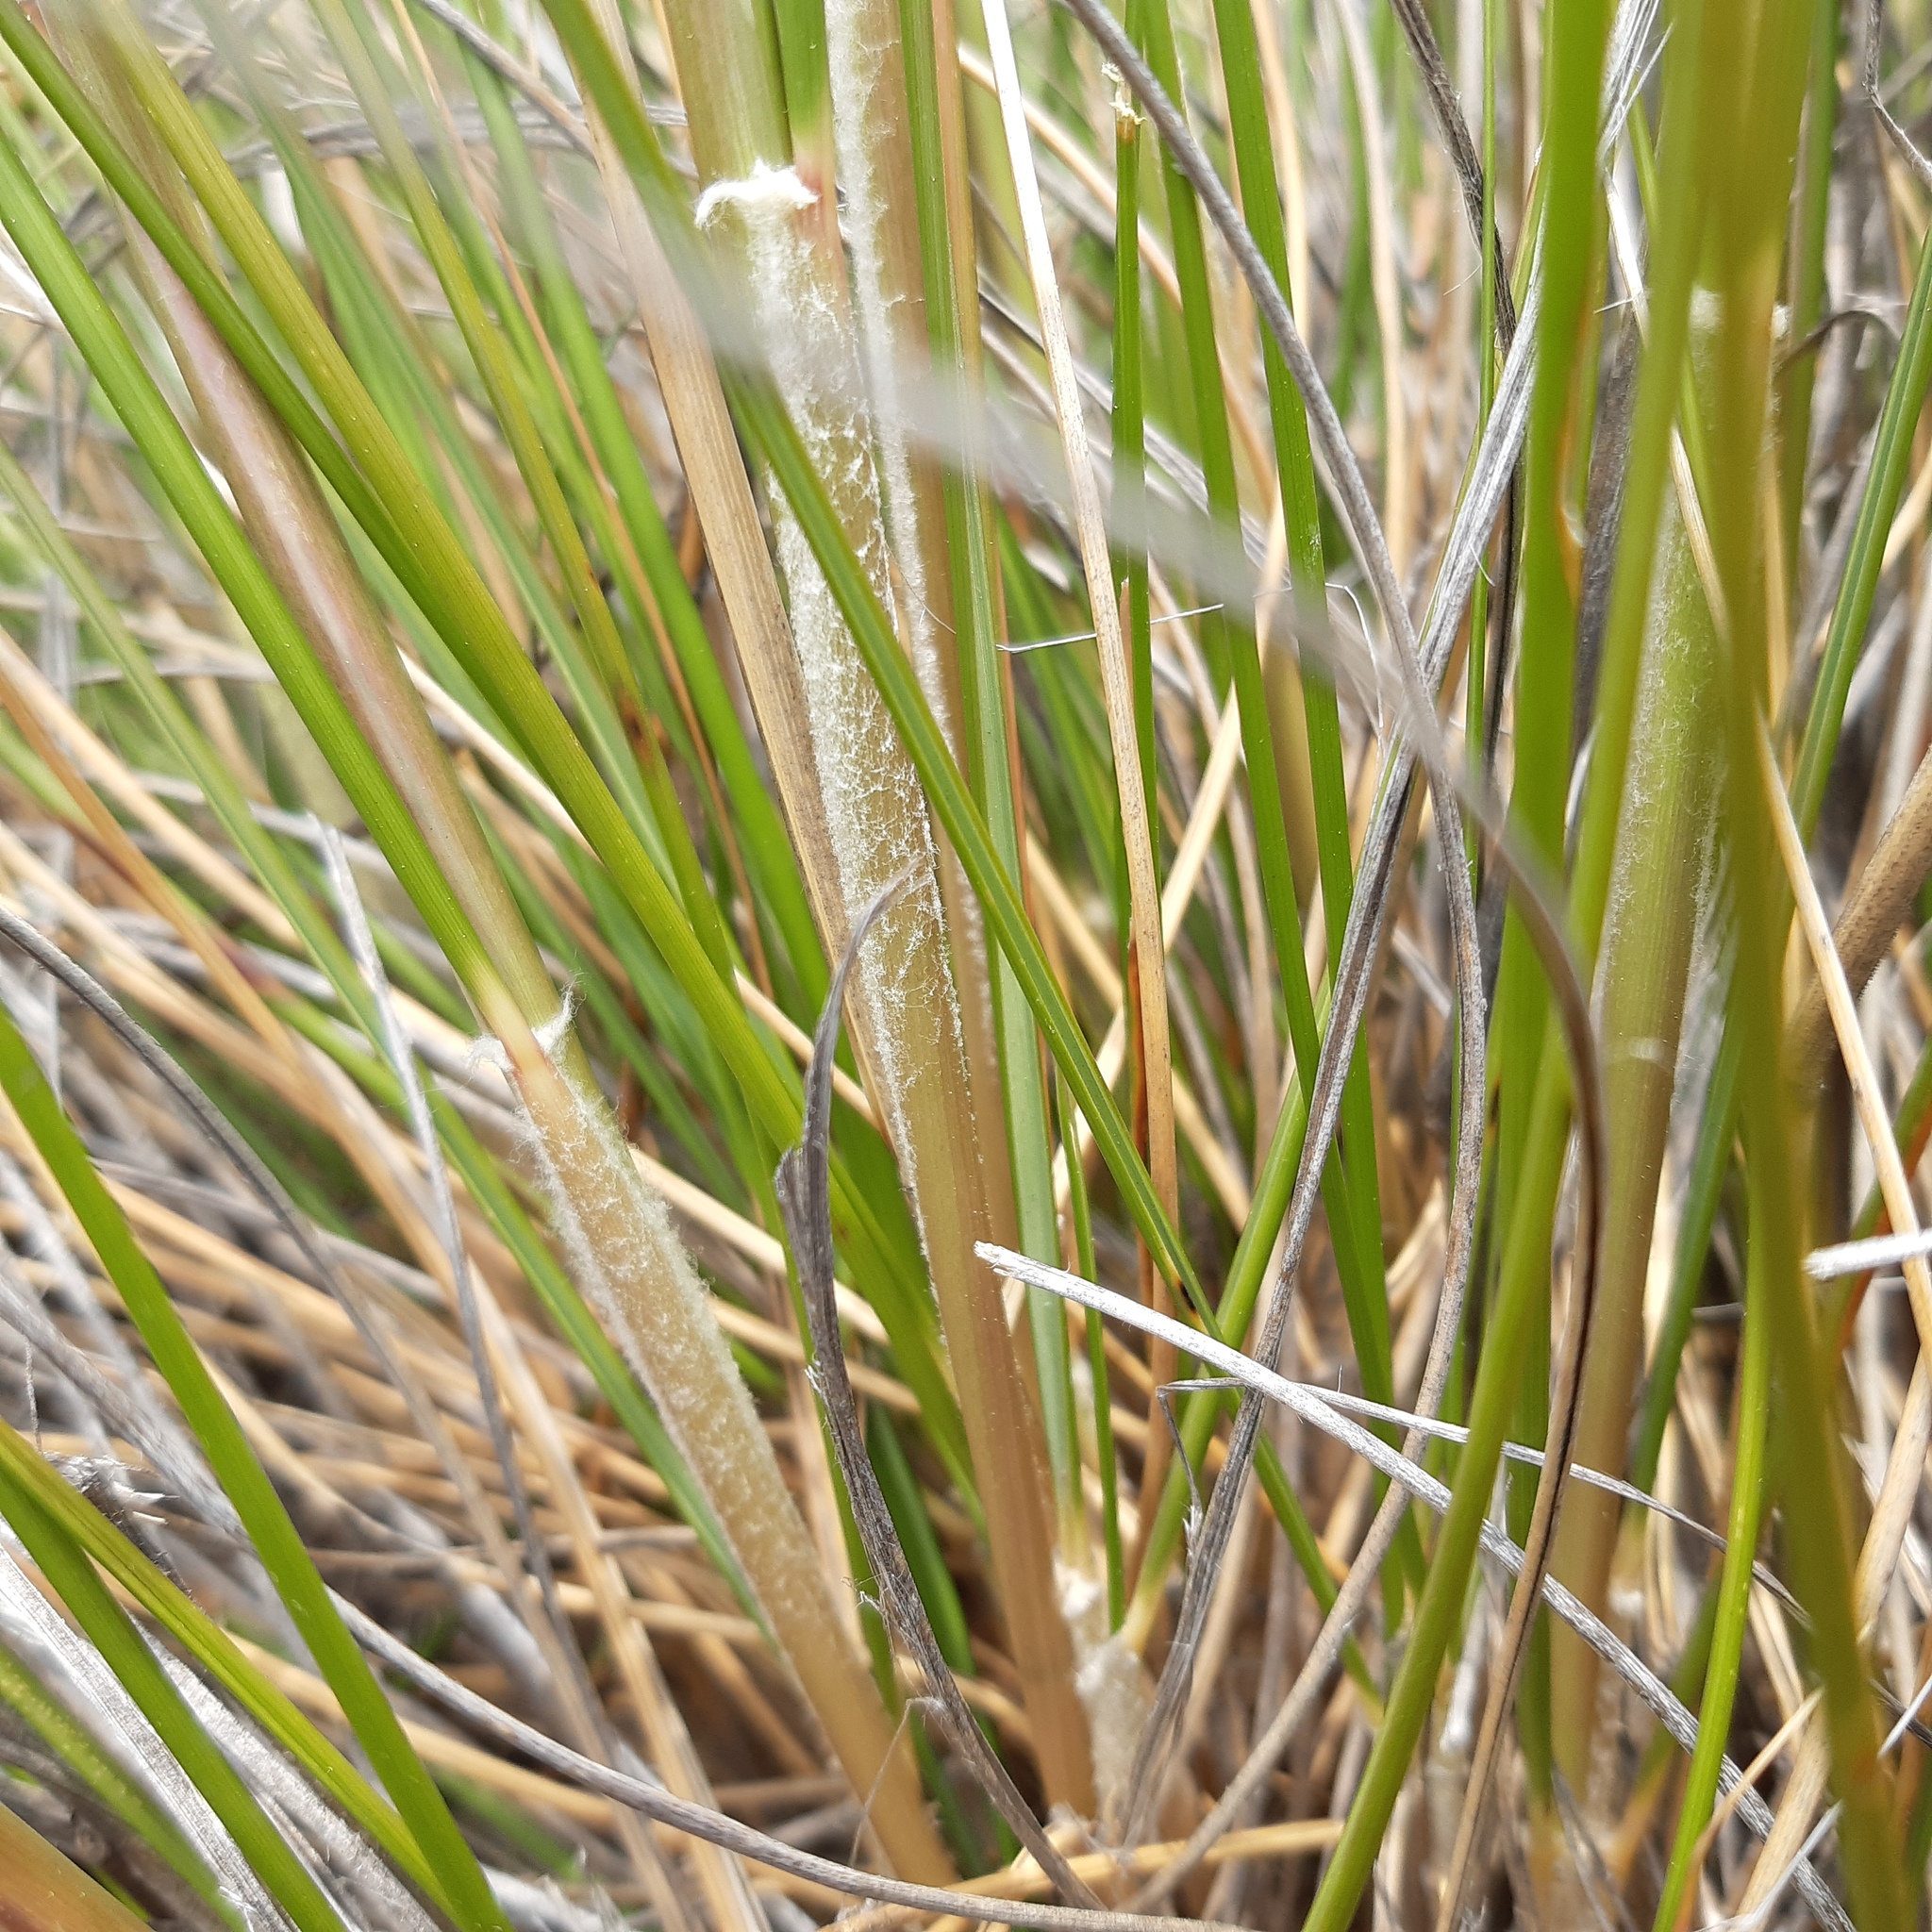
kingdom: Plantae
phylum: Tracheophyta
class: Liliopsida
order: Poales
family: Poaceae
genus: Pentameris
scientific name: Pentameris eriostoma
